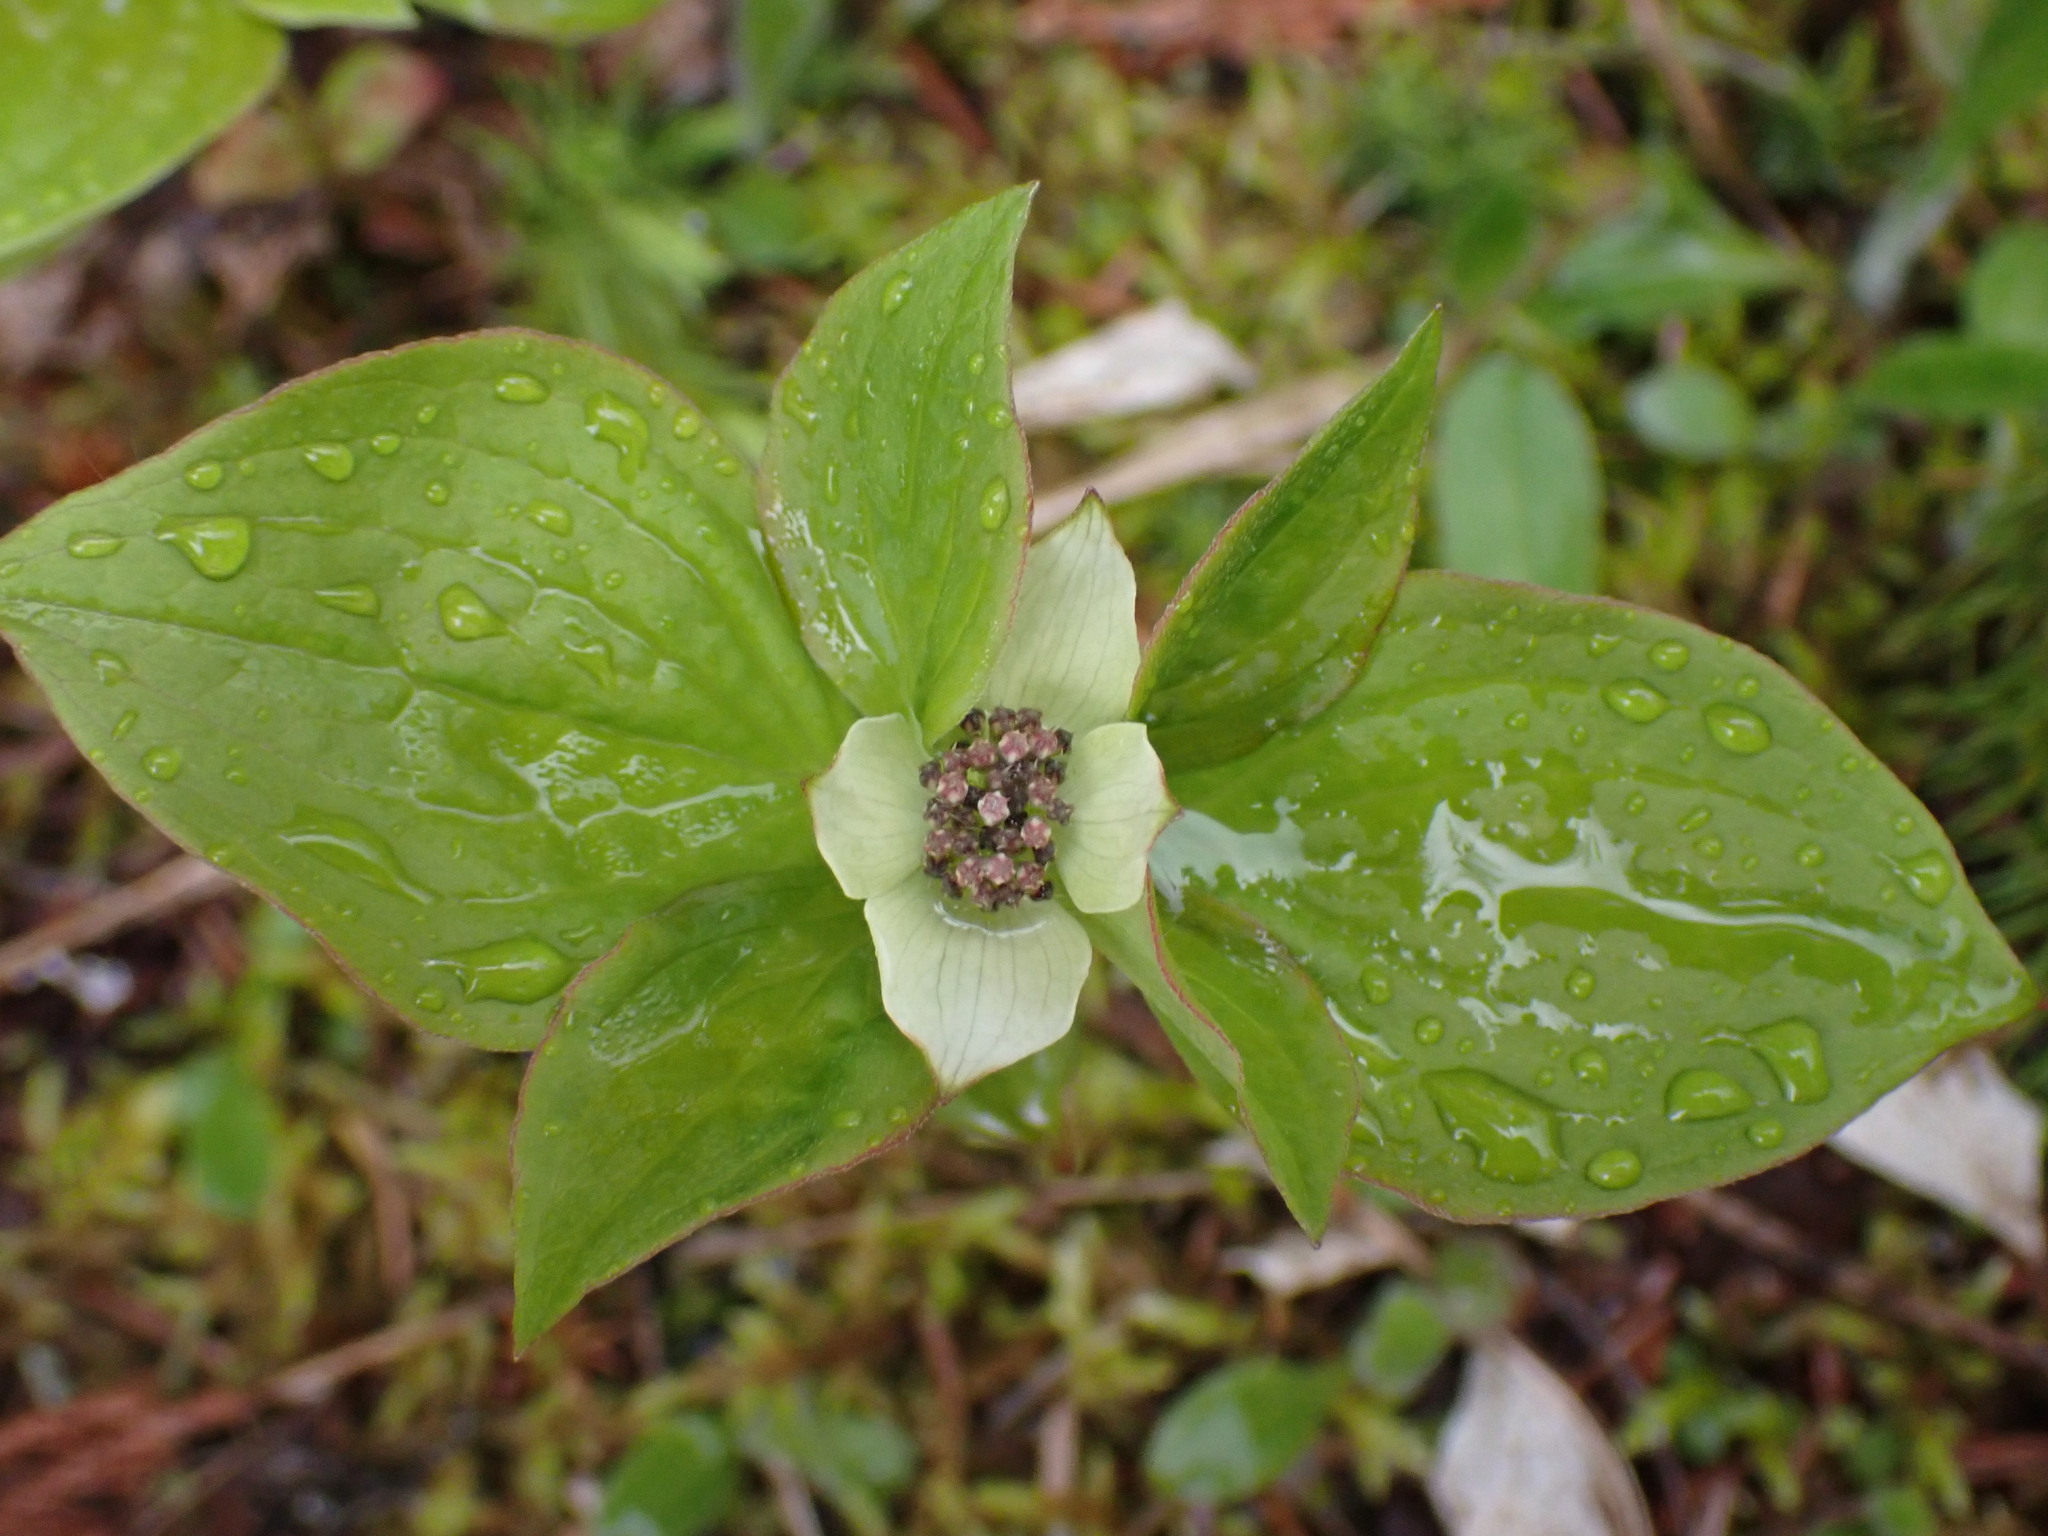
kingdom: Plantae
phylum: Tracheophyta
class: Magnoliopsida
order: Cornales
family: Cornaceae
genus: Cornus
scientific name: Cornus unalaschkensis
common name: Alaska bunchberry
